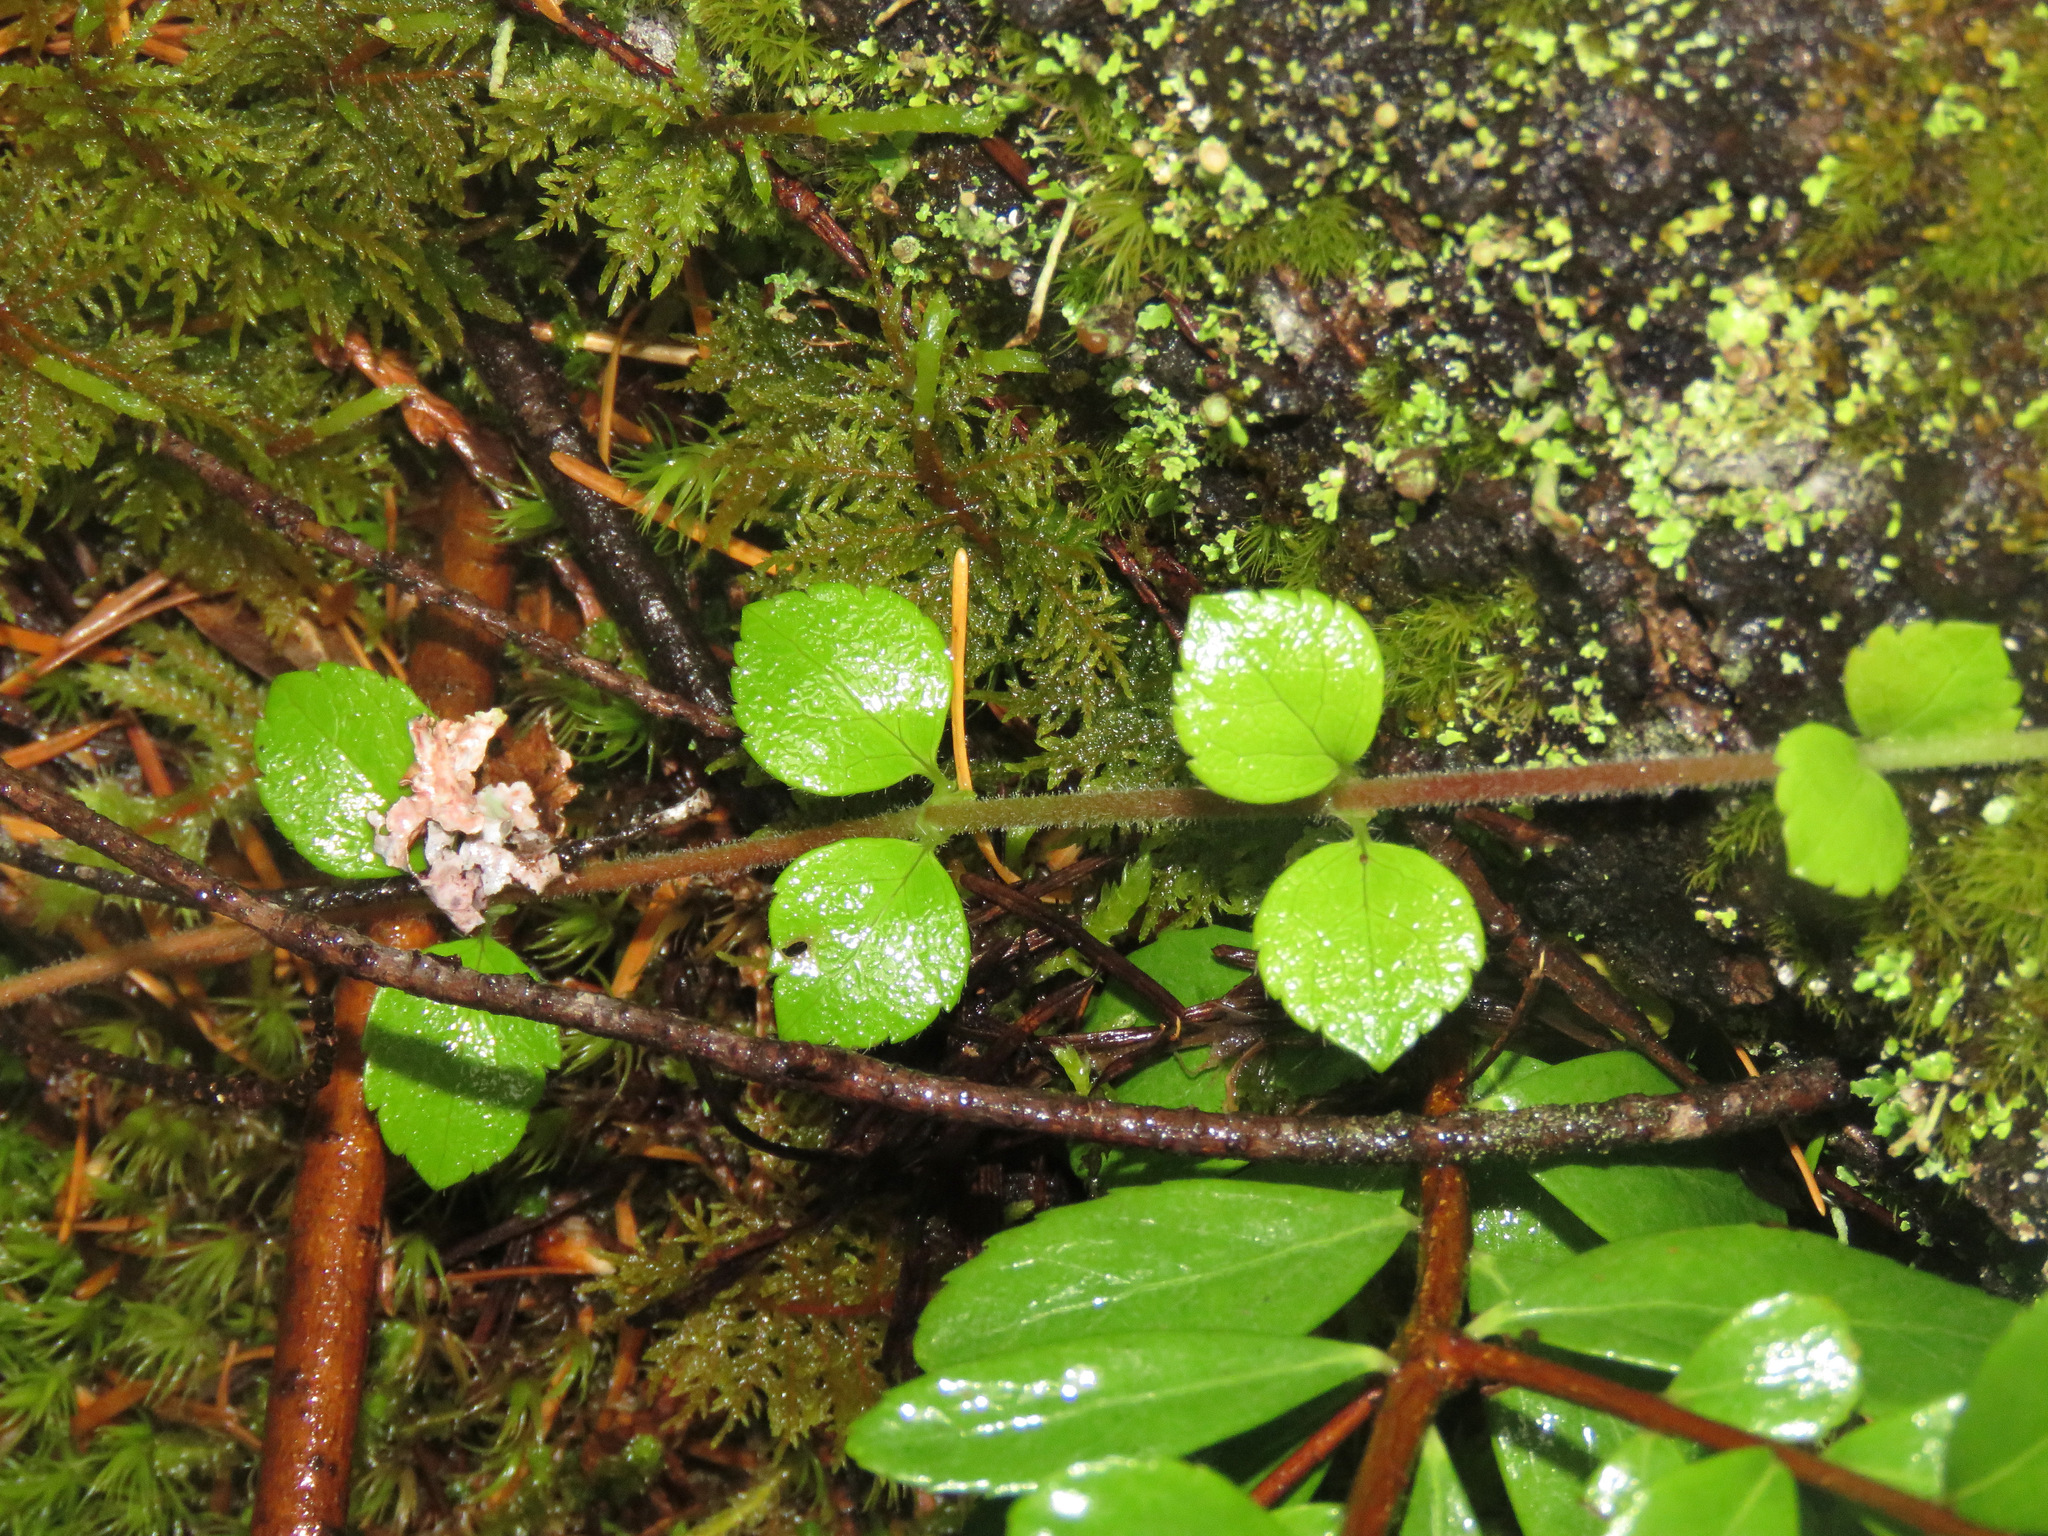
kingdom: Plantae
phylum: Tracheophyta
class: Magnoliopsida
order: Dipsacales
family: Caprifoliaceae
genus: Linnaea
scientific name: Linnaea borealis
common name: Twinflower
